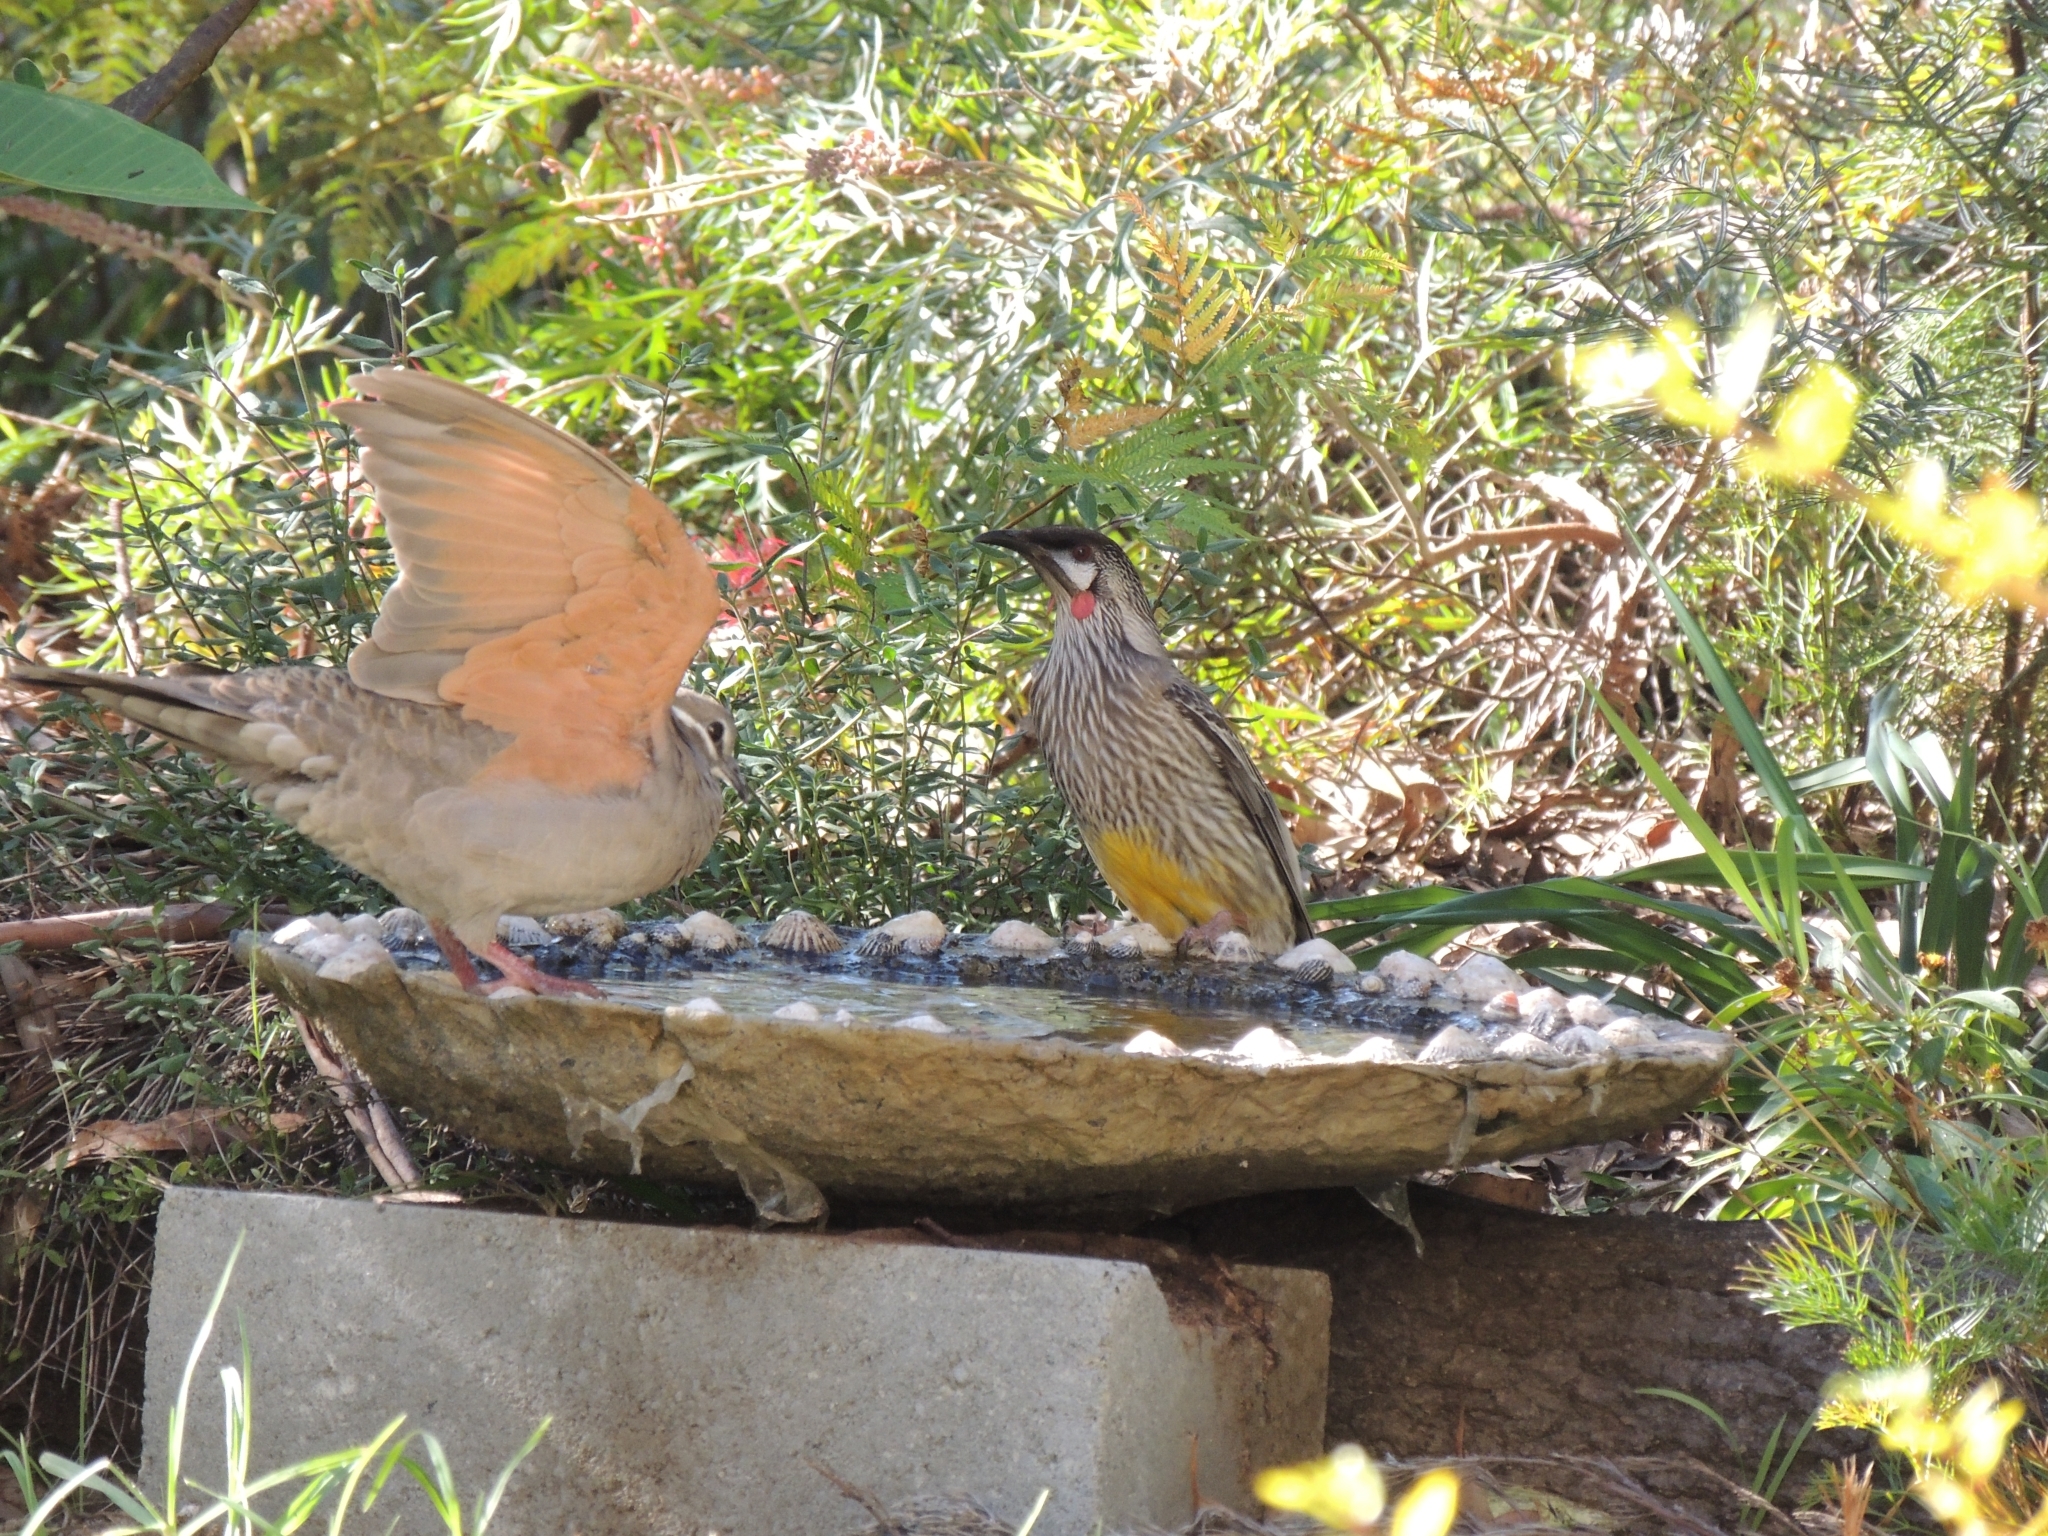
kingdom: Animalia
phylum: Chordata
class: Aves
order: Passeriformes
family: Meliphagidae
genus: Anthochaera
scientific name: Anthochaera carunculata
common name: Red wattlebird
